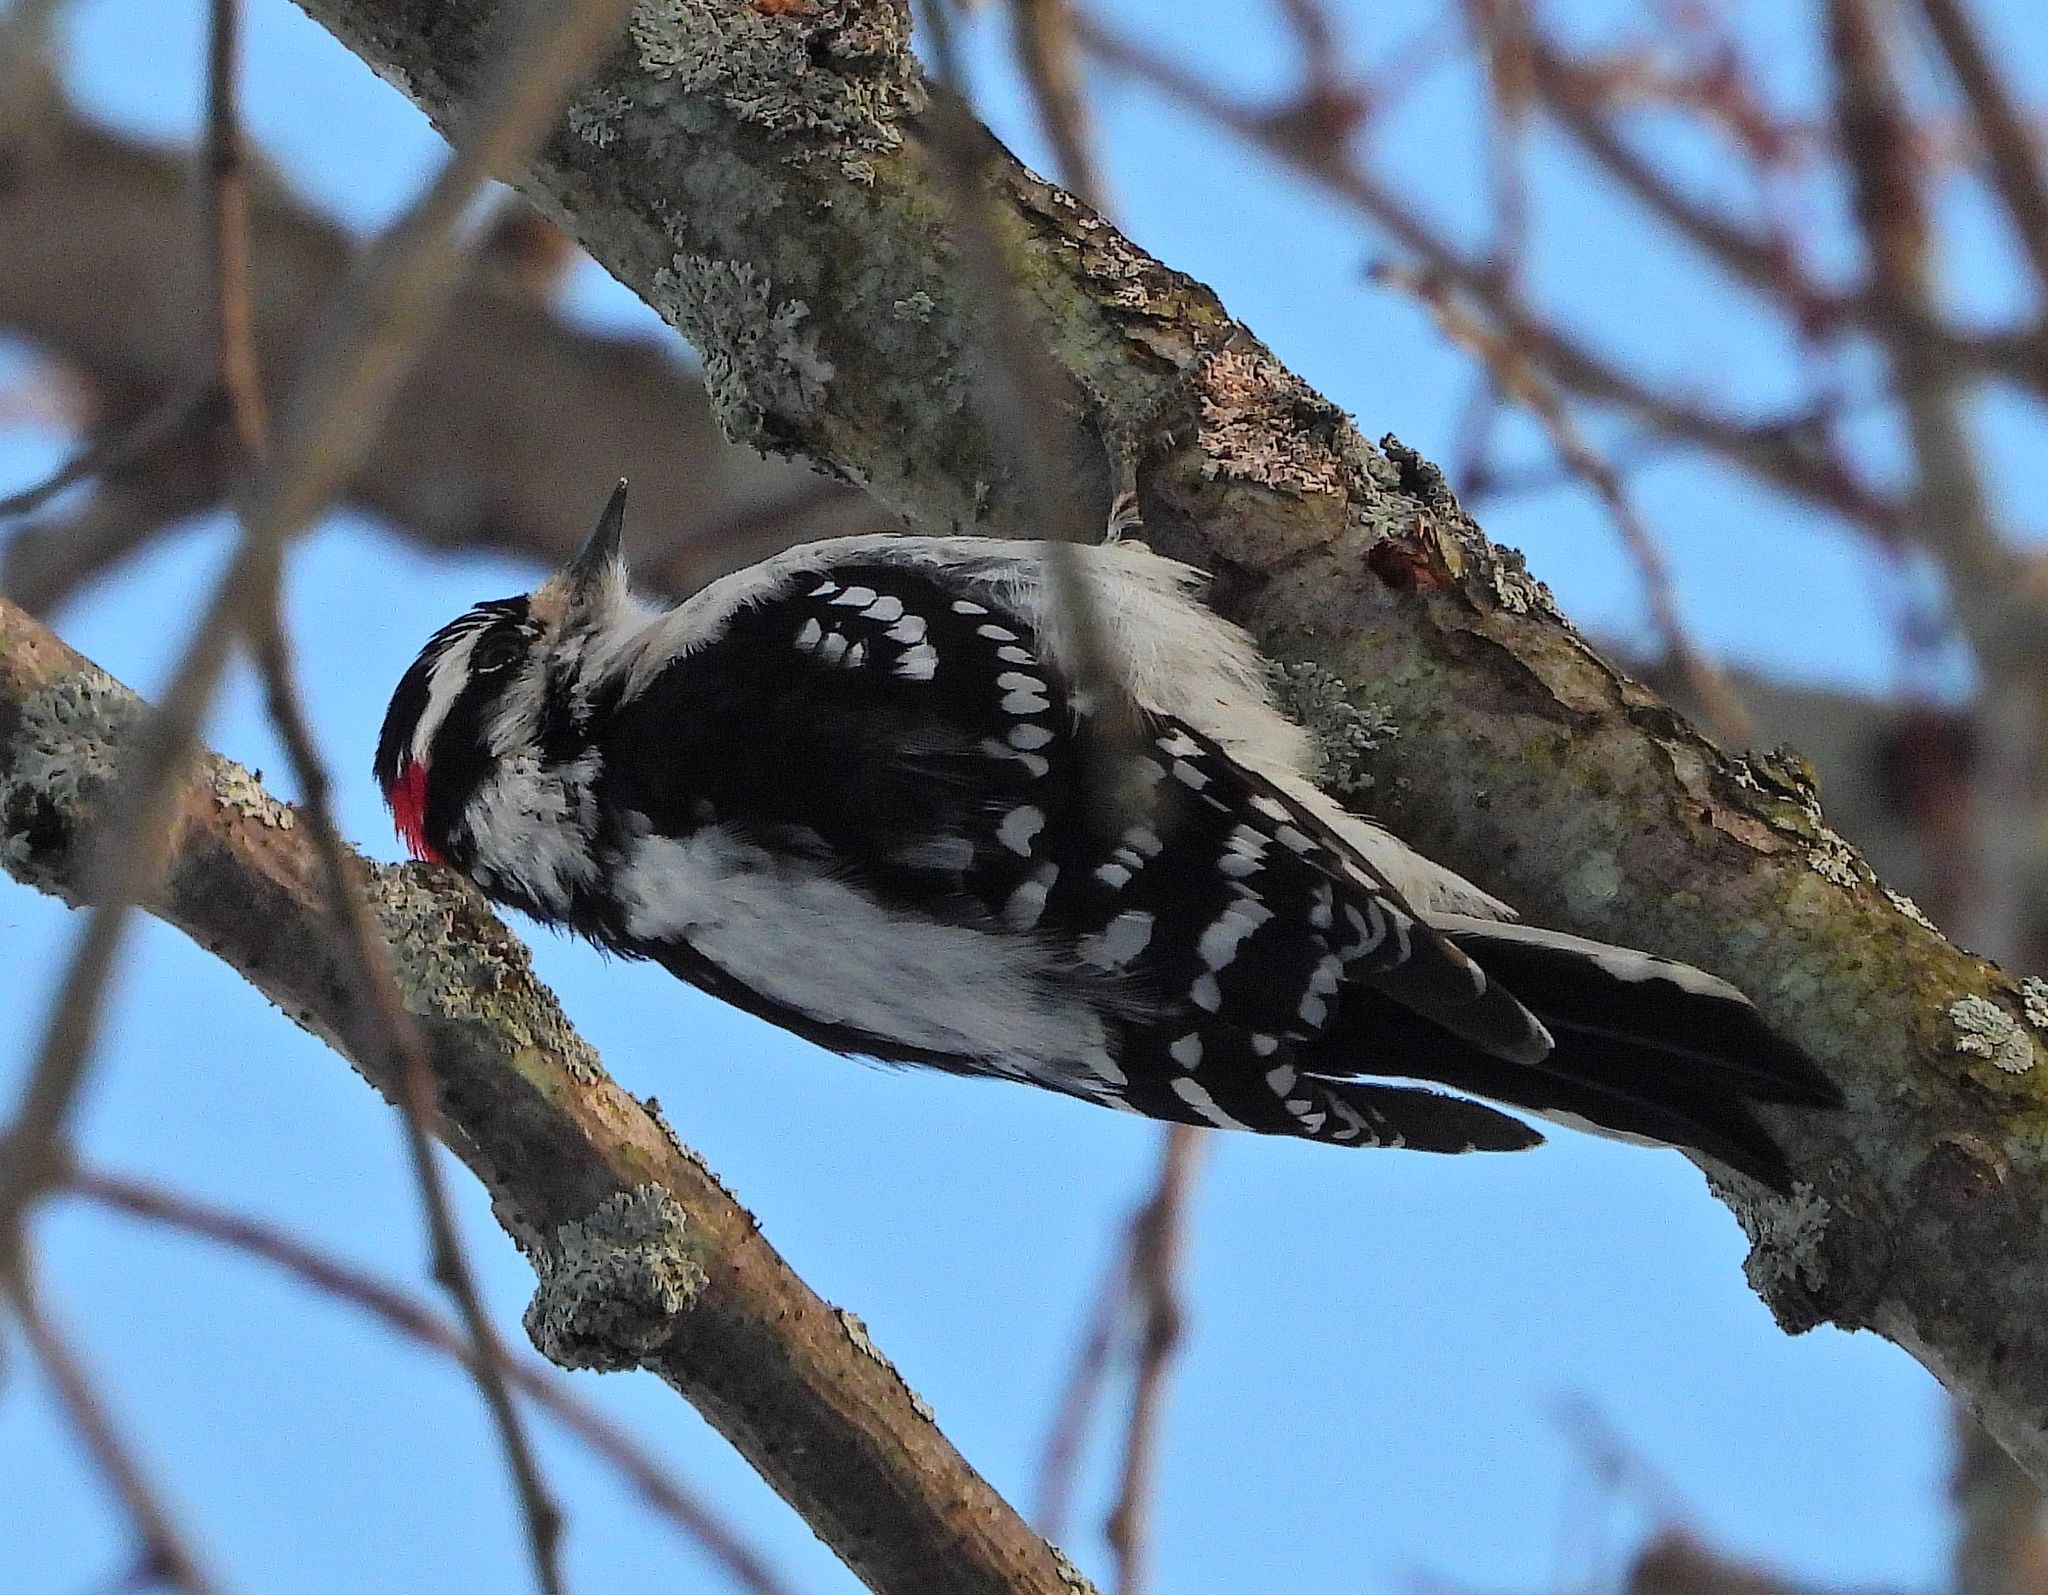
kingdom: Animalia
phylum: Chordata
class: Aves
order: Piciformes
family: Picidae
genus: Dryobates
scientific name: Dryobates pubescens
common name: Downy woodpecker
